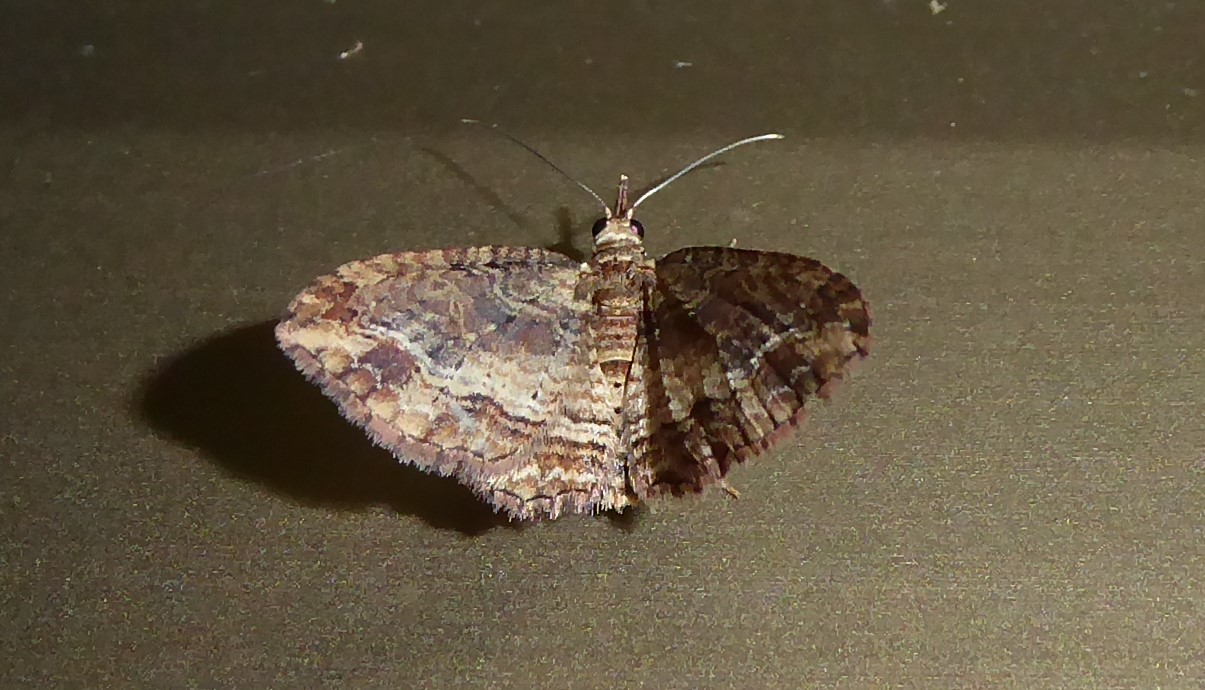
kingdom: Animalia
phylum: Arthropoda
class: Insecta
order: Lepidoptera
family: Geometridae
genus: Chloroclystis
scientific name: Chloroclystis filata
